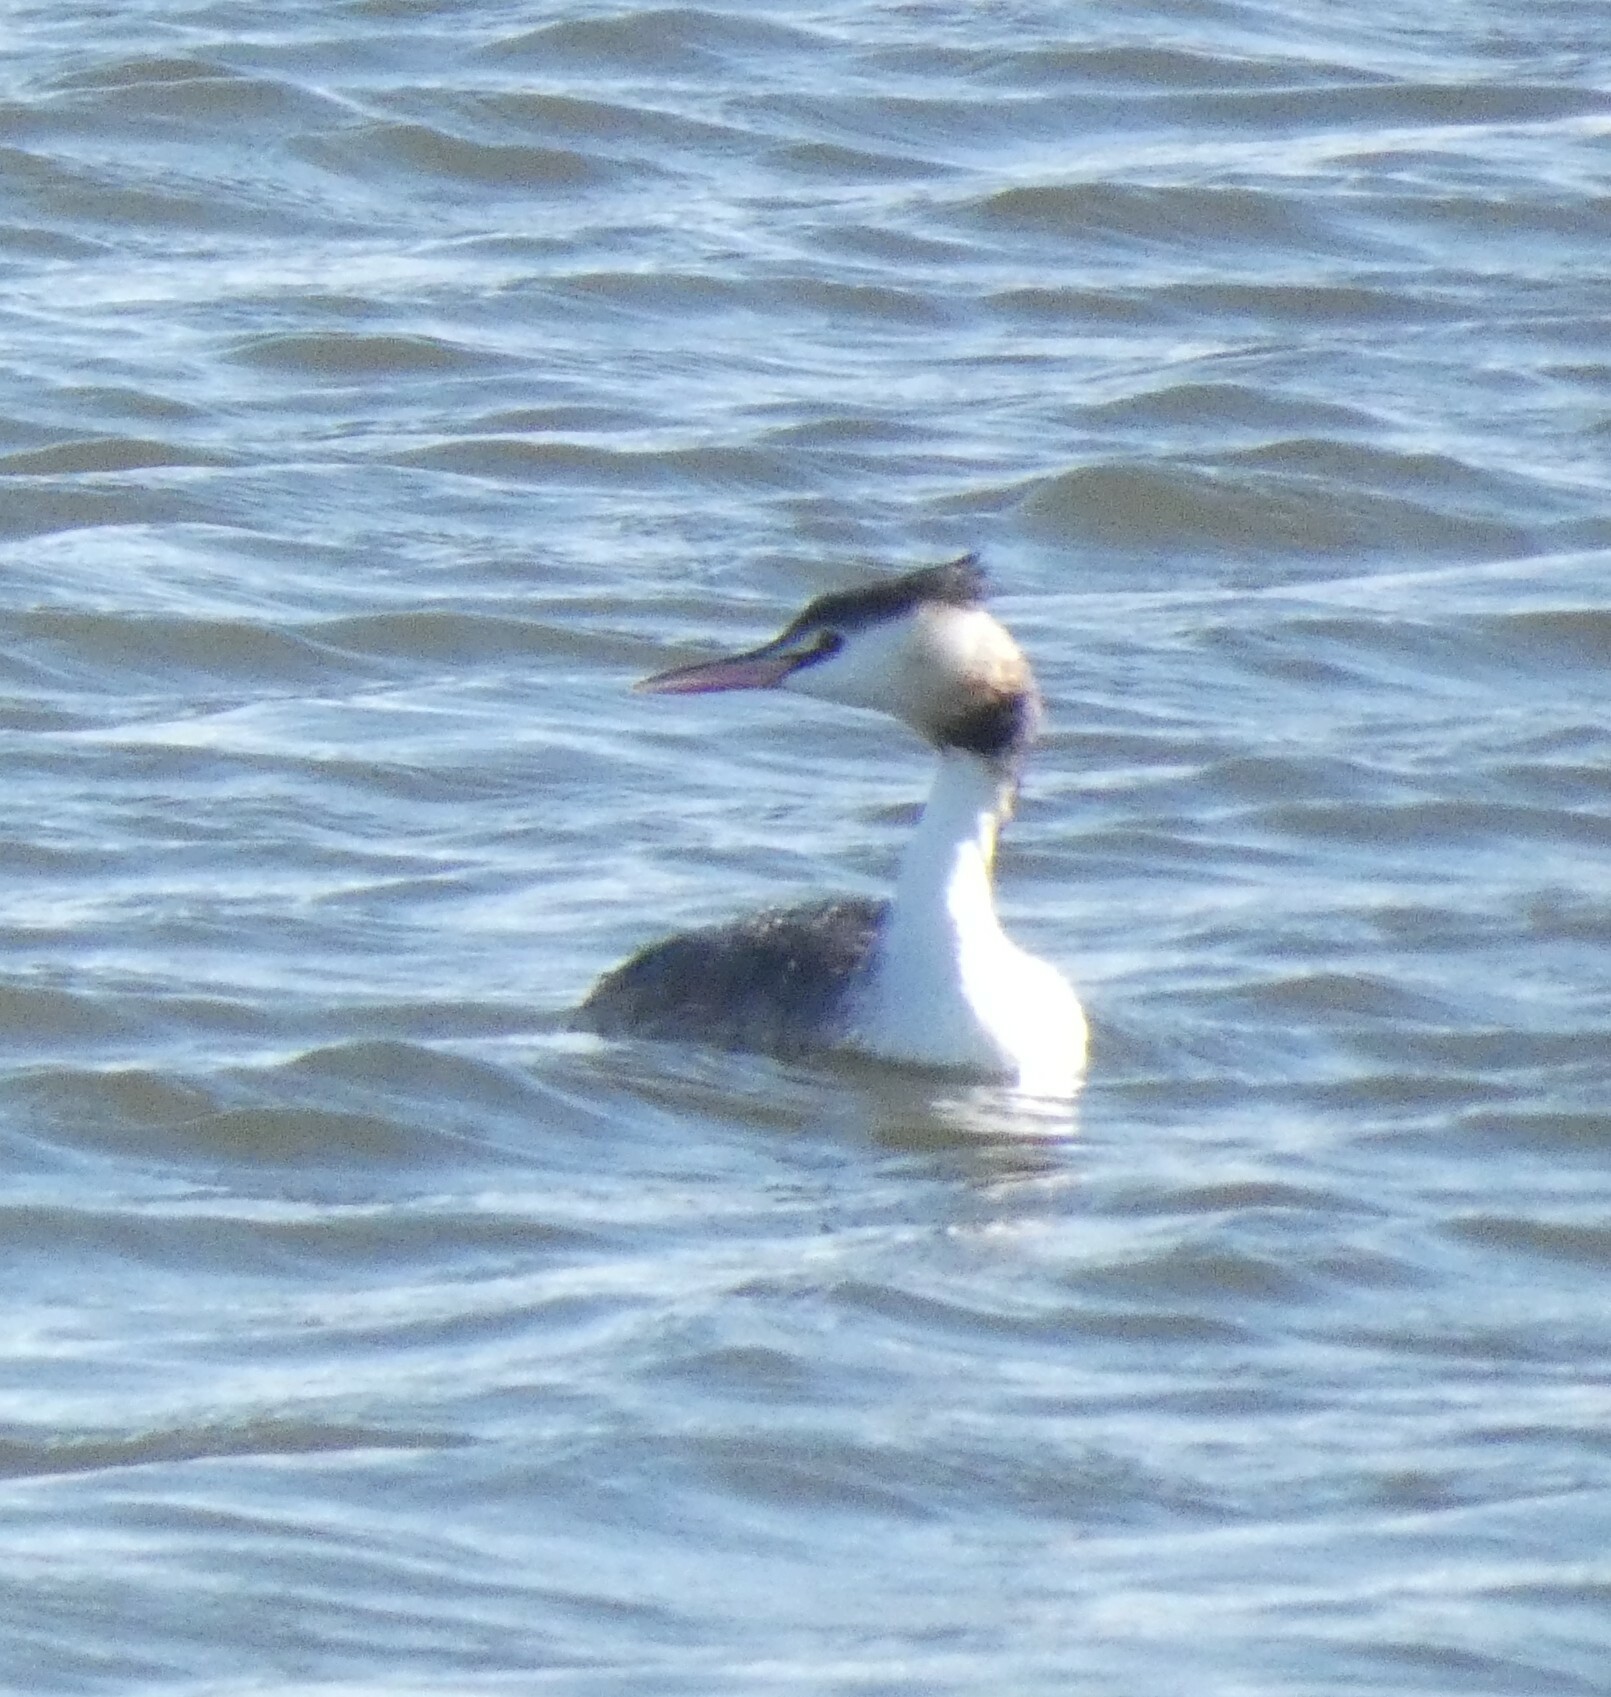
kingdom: Animalia
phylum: Chordata
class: Aves
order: Podicipediformes
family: Podicipedidae
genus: Podiceps
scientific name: Podiceps cristatus
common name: Great crested grebe
